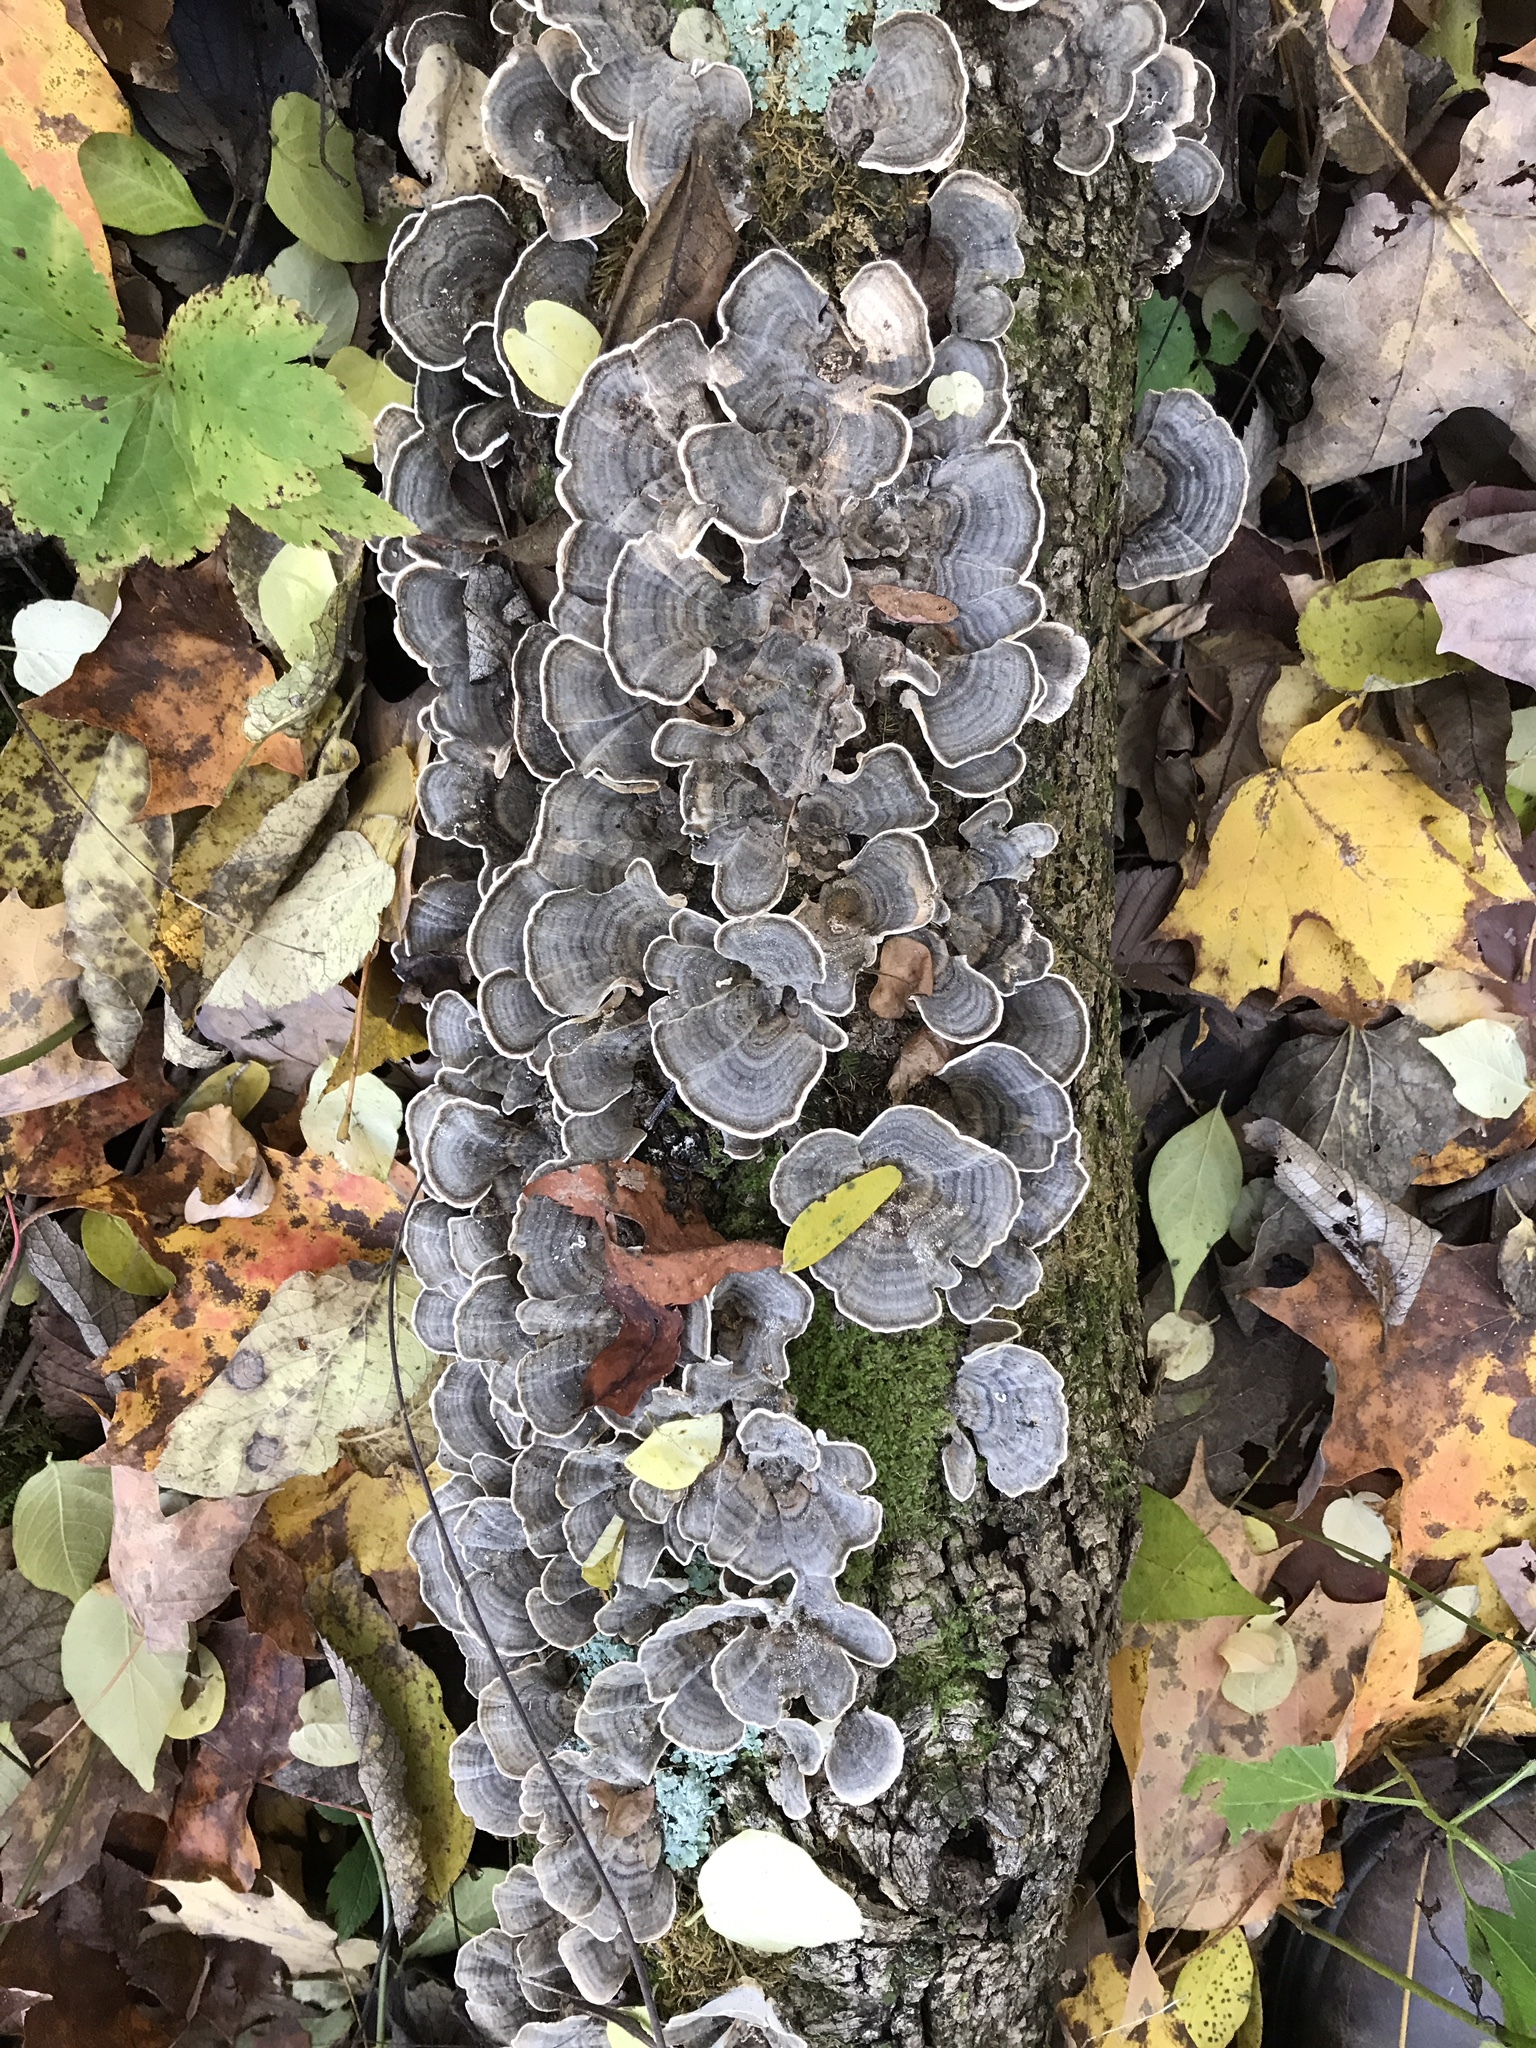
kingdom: Fungi
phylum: Basidiomycota
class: Agaricomycetes
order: Polyporales
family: Polyporaceae
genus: Trametes
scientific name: Trametes versicolor
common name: Turkeytail
